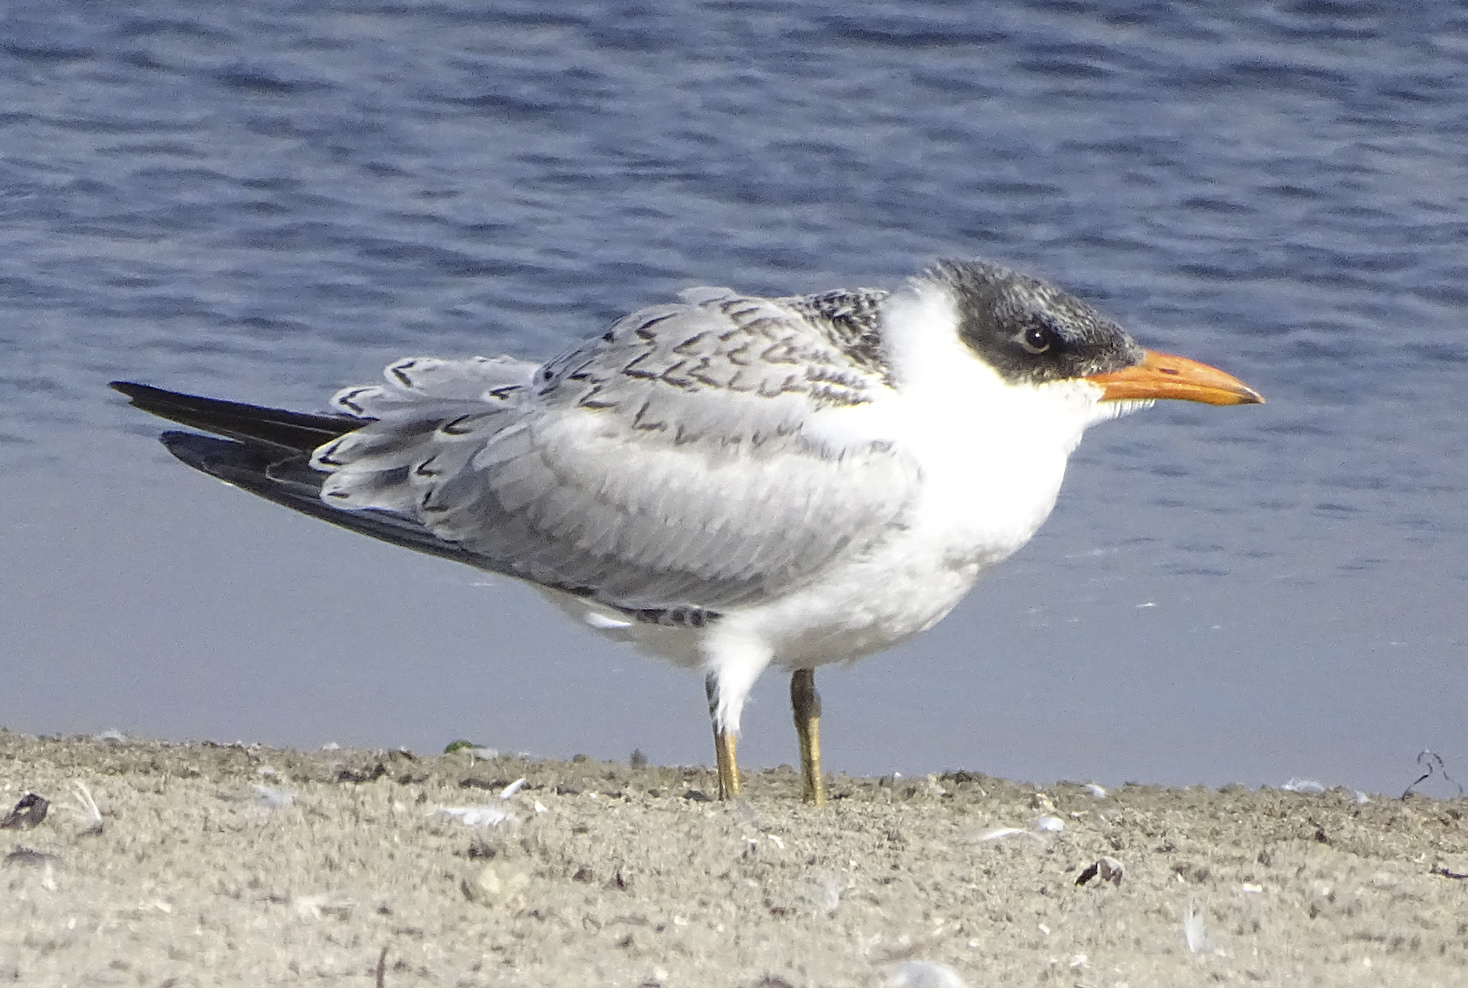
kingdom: Animalia
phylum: Chordata
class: Aves
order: Charadriiformes
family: Laridae
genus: Hydroprogne
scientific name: Hydroprogne caspia
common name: Caspian tern
